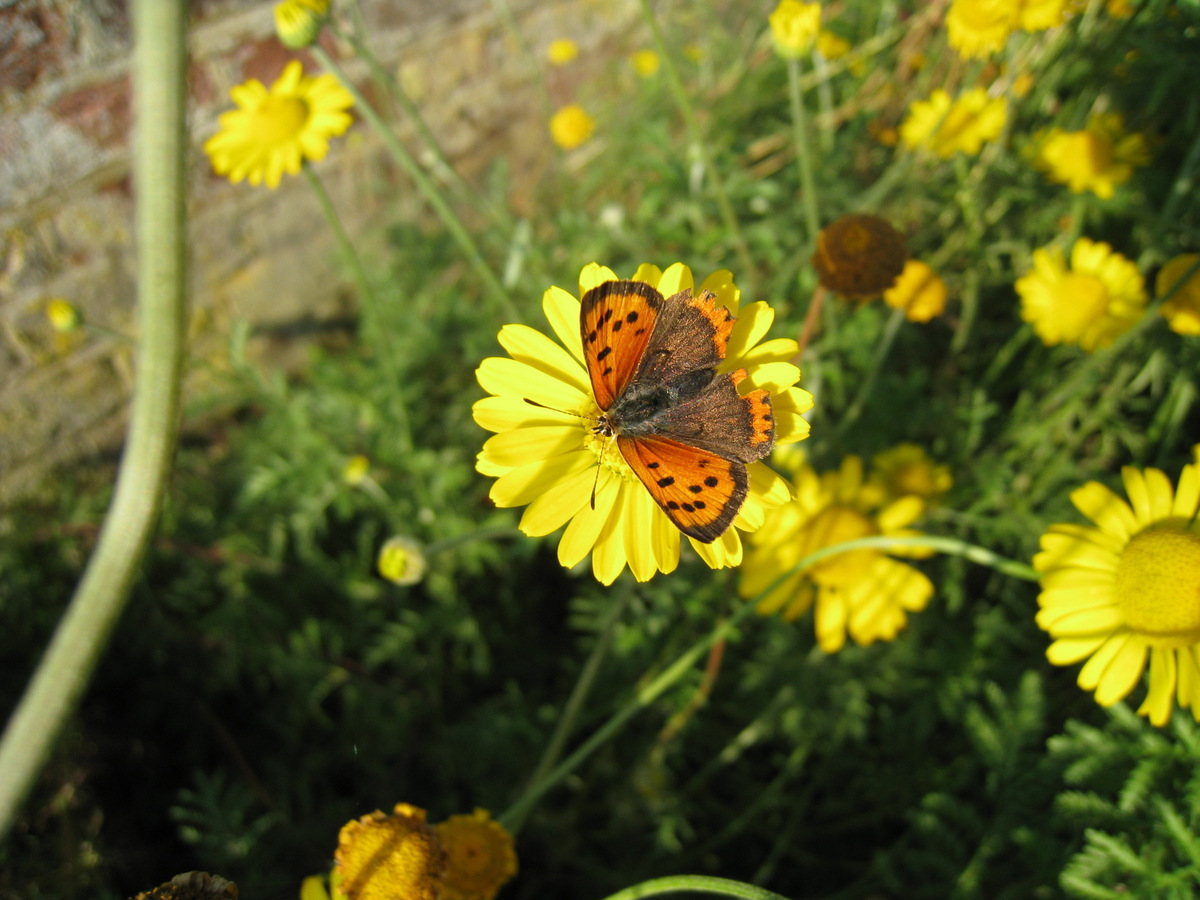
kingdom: Animalia
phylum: Arthropoda
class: Insecta
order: Lepidoptera
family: Lycaenidae
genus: Lycaena
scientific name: Lycaena phlaeas
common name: Small copper
